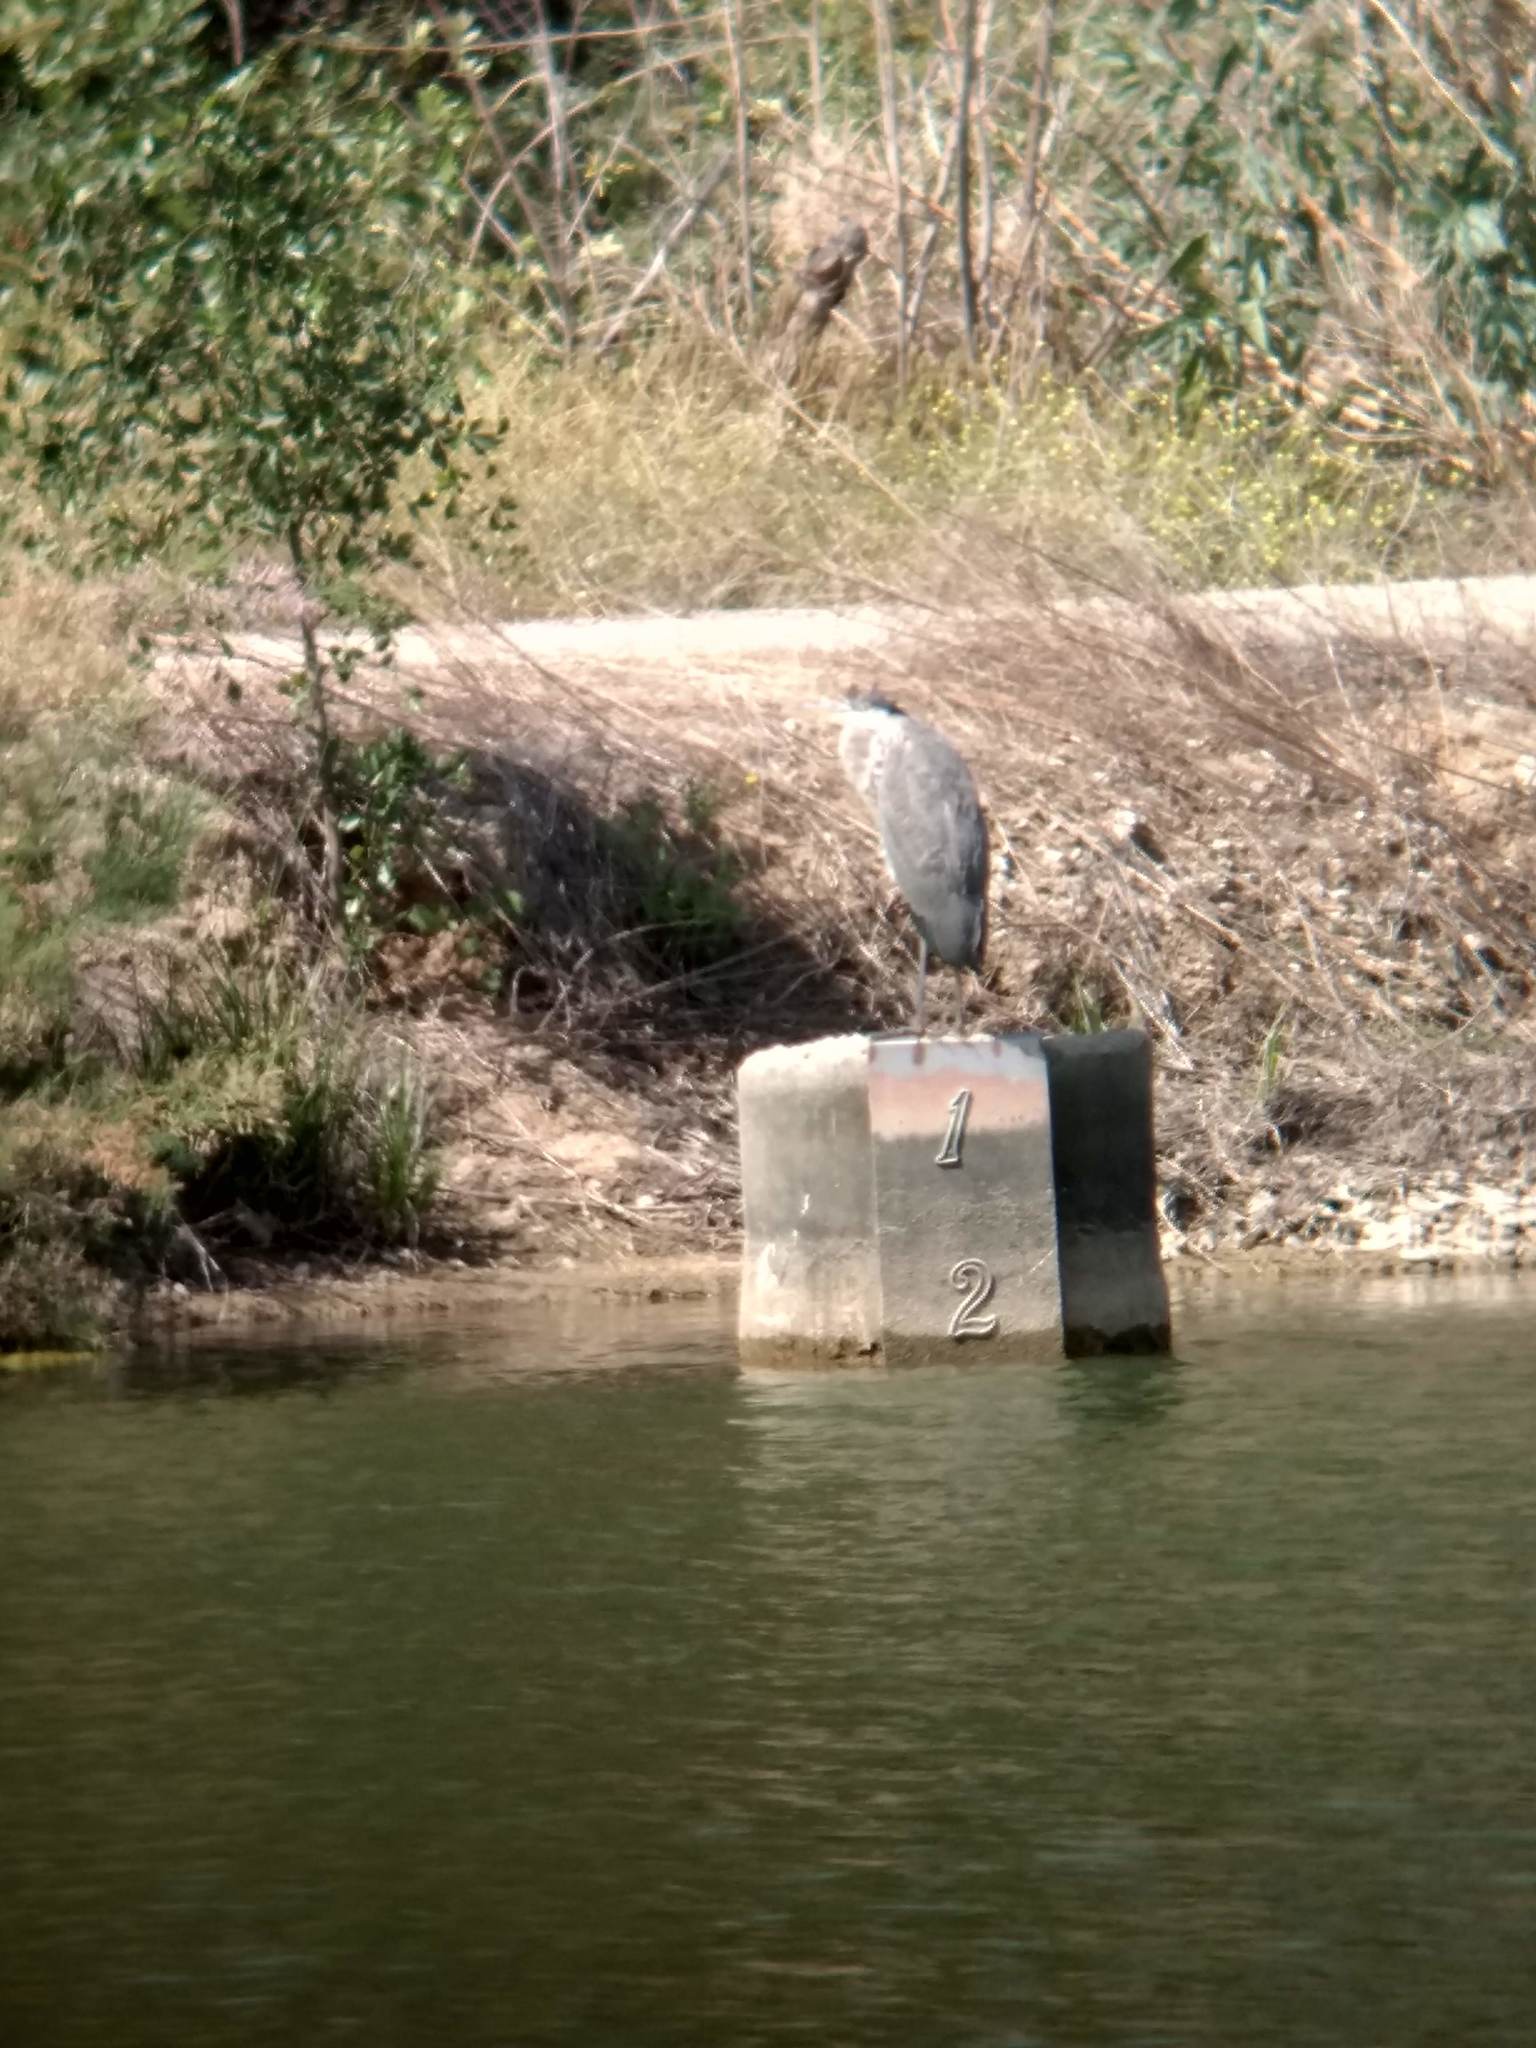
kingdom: Animalia
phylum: Chordata
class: Aves
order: Pelecaniformes
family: Ardeidae
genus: Ardea
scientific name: Ardea herodias
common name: Great blue heron
